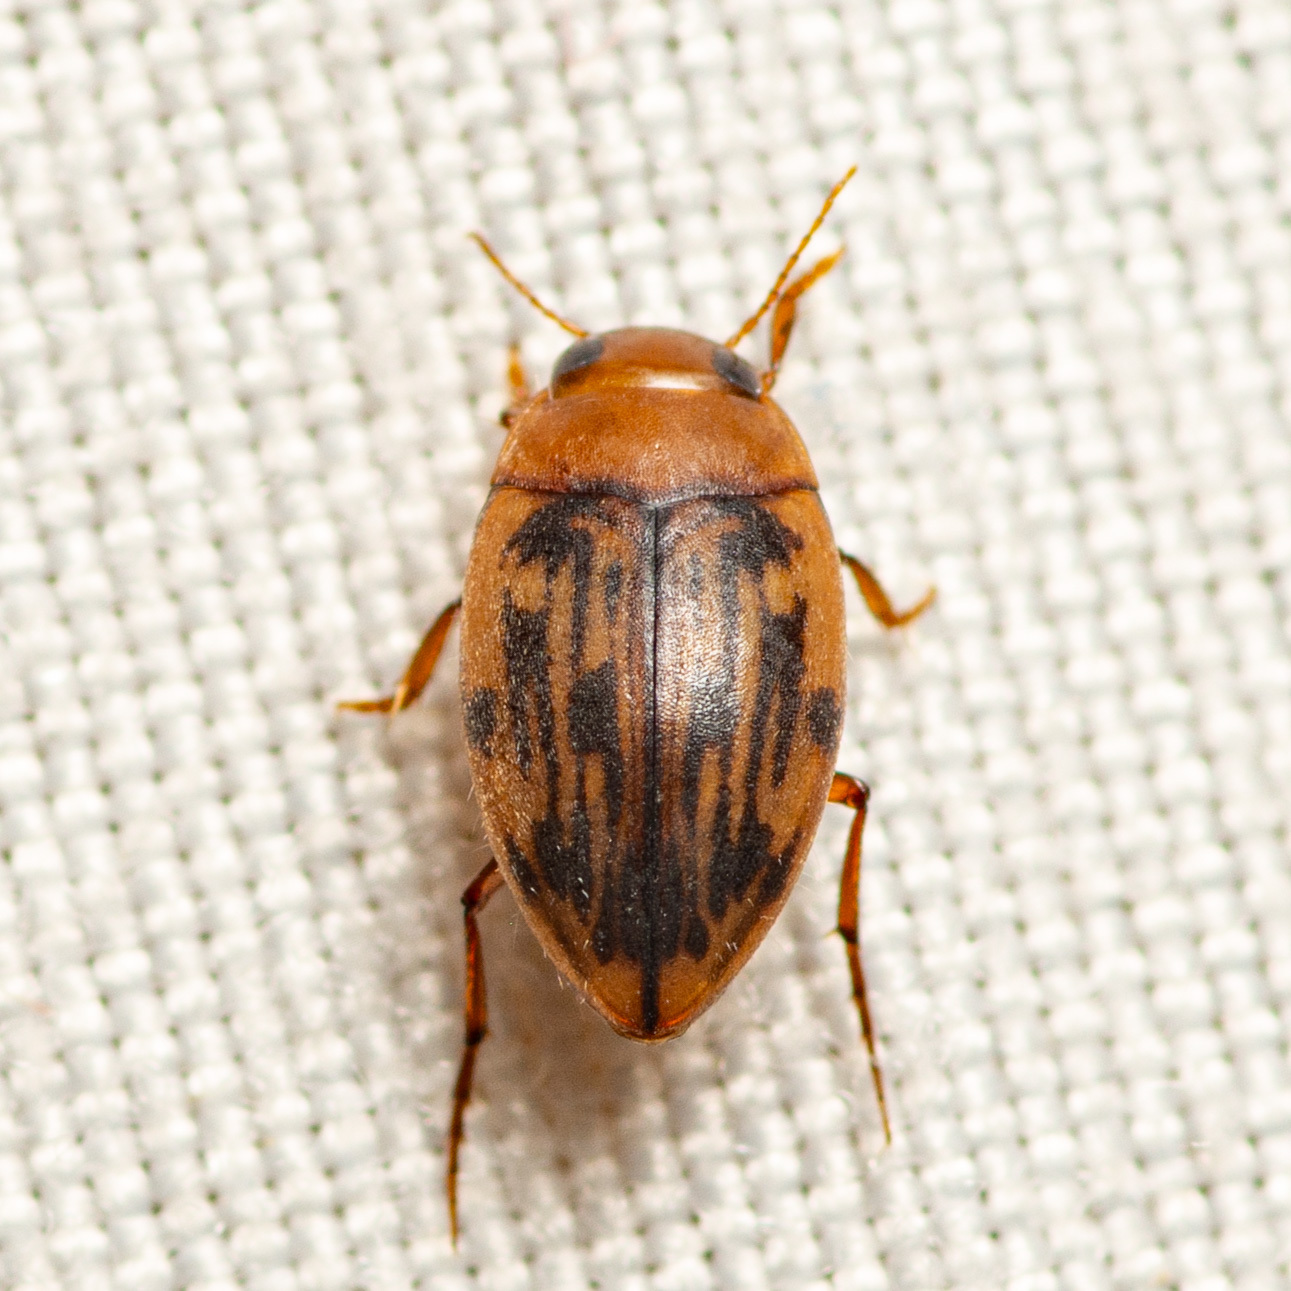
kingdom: Animalia
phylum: Arthropoda
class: Insecta
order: Coleoptera
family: Dytiscidae
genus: Neoporus
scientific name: Neoporus dimidiatus
